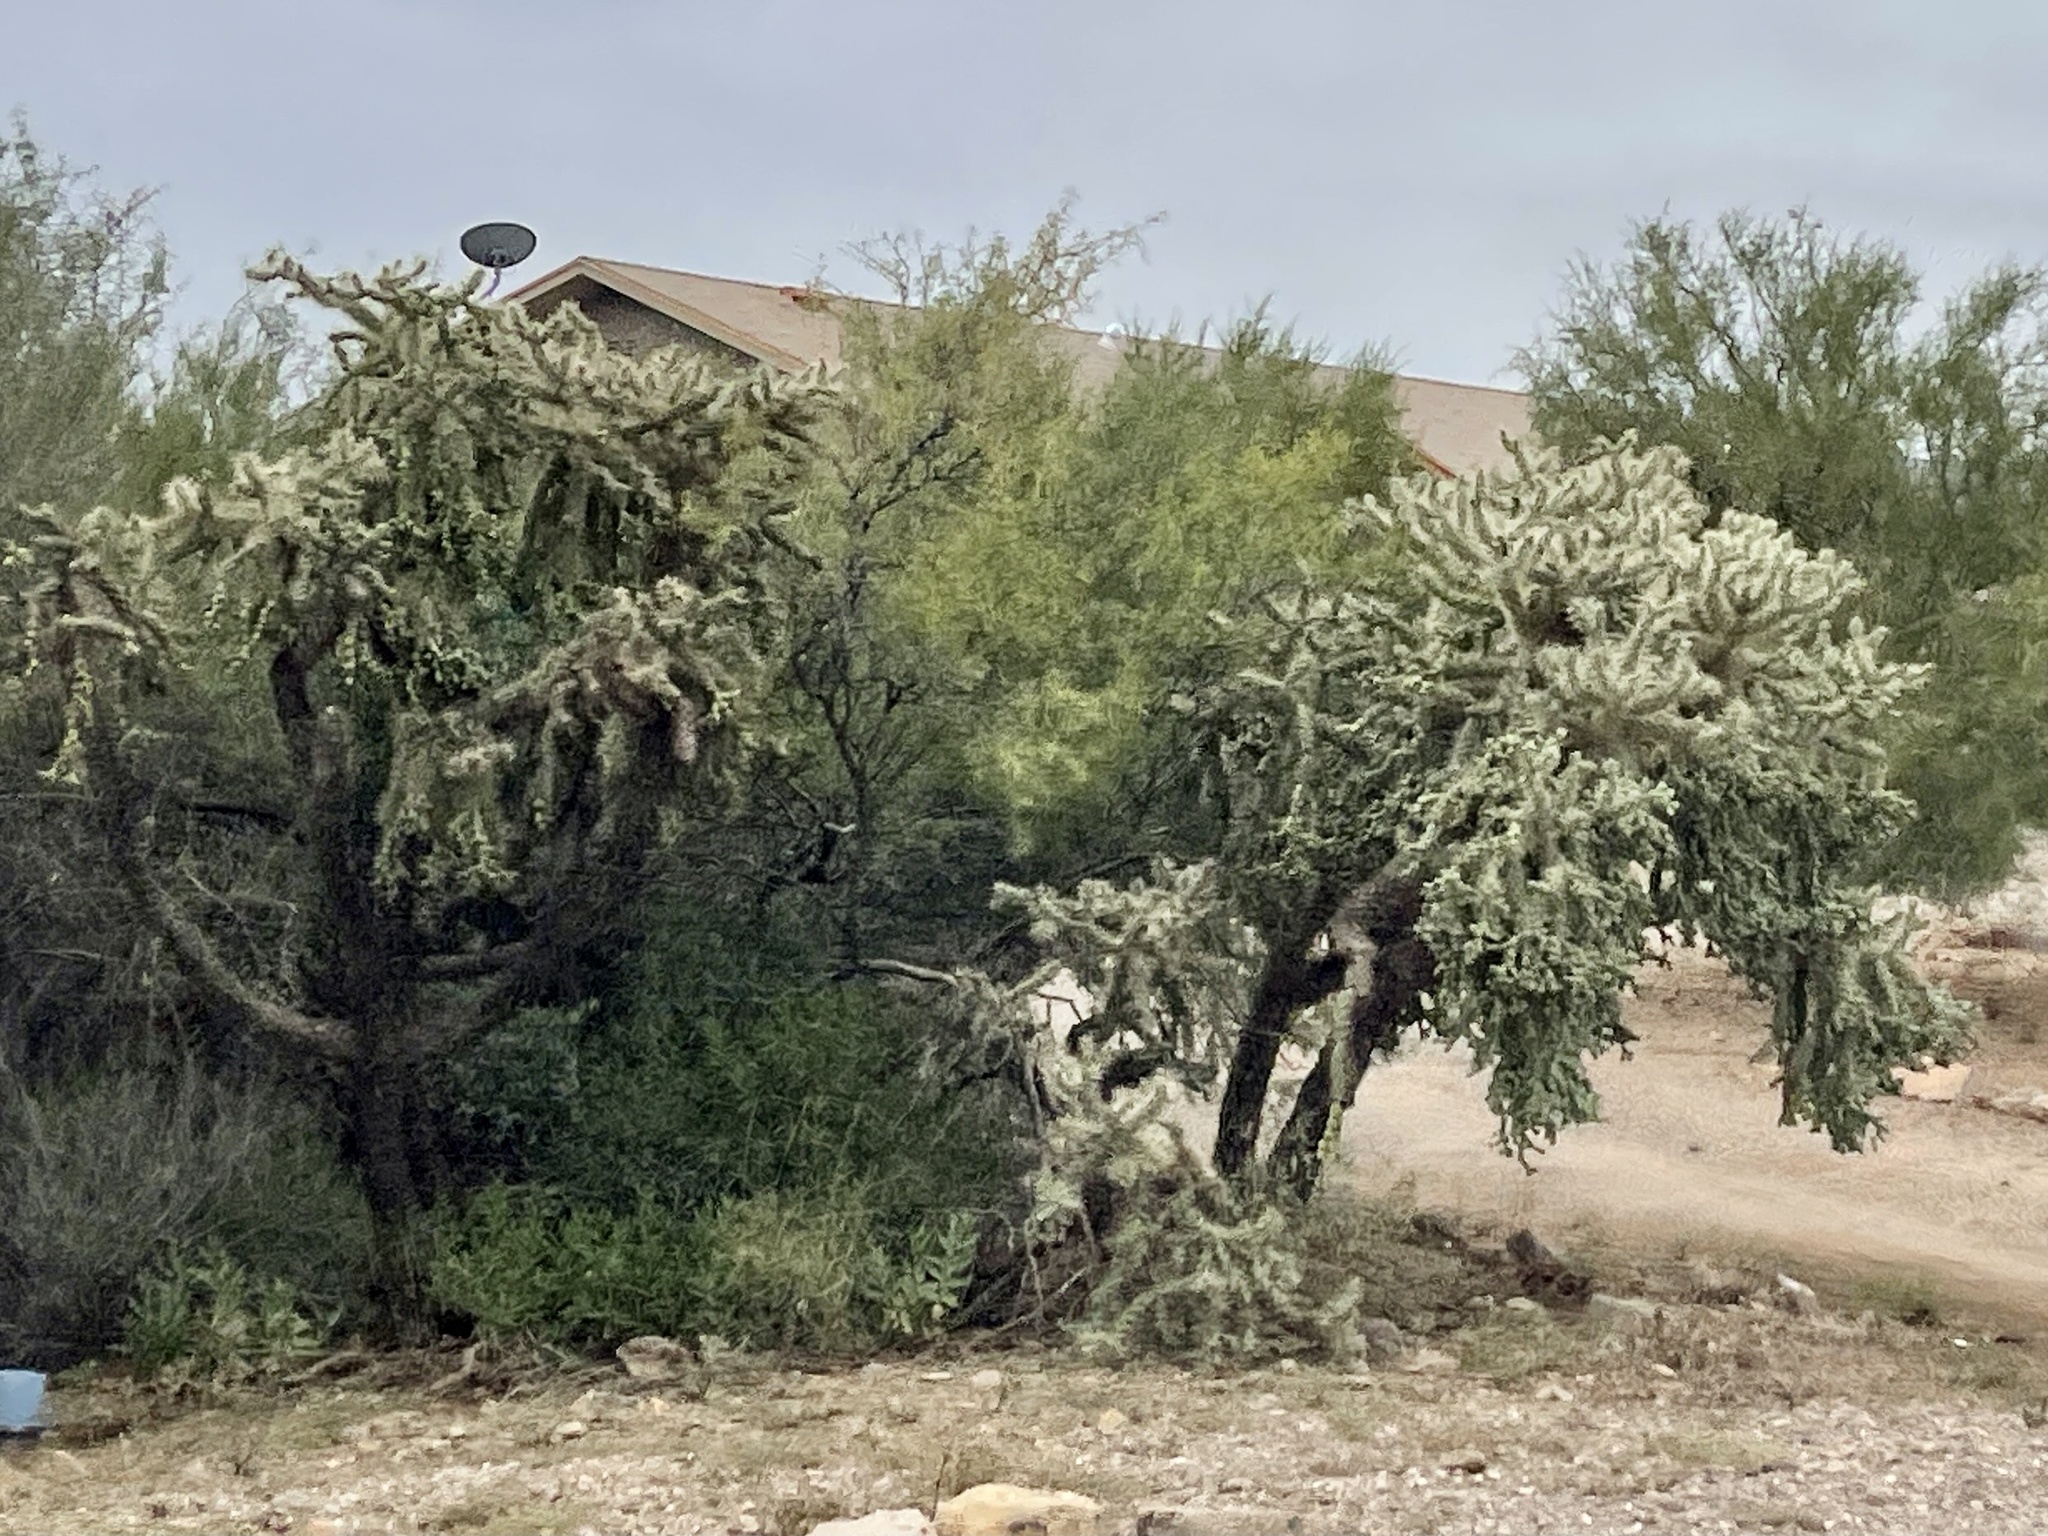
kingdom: Plantae
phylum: Tracheophyta
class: Magnoliopsida
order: Caryophyllales
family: Cactaceae
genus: Cylindropuntia
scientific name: Cylindropuntia fulgida
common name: Jumping cholla
